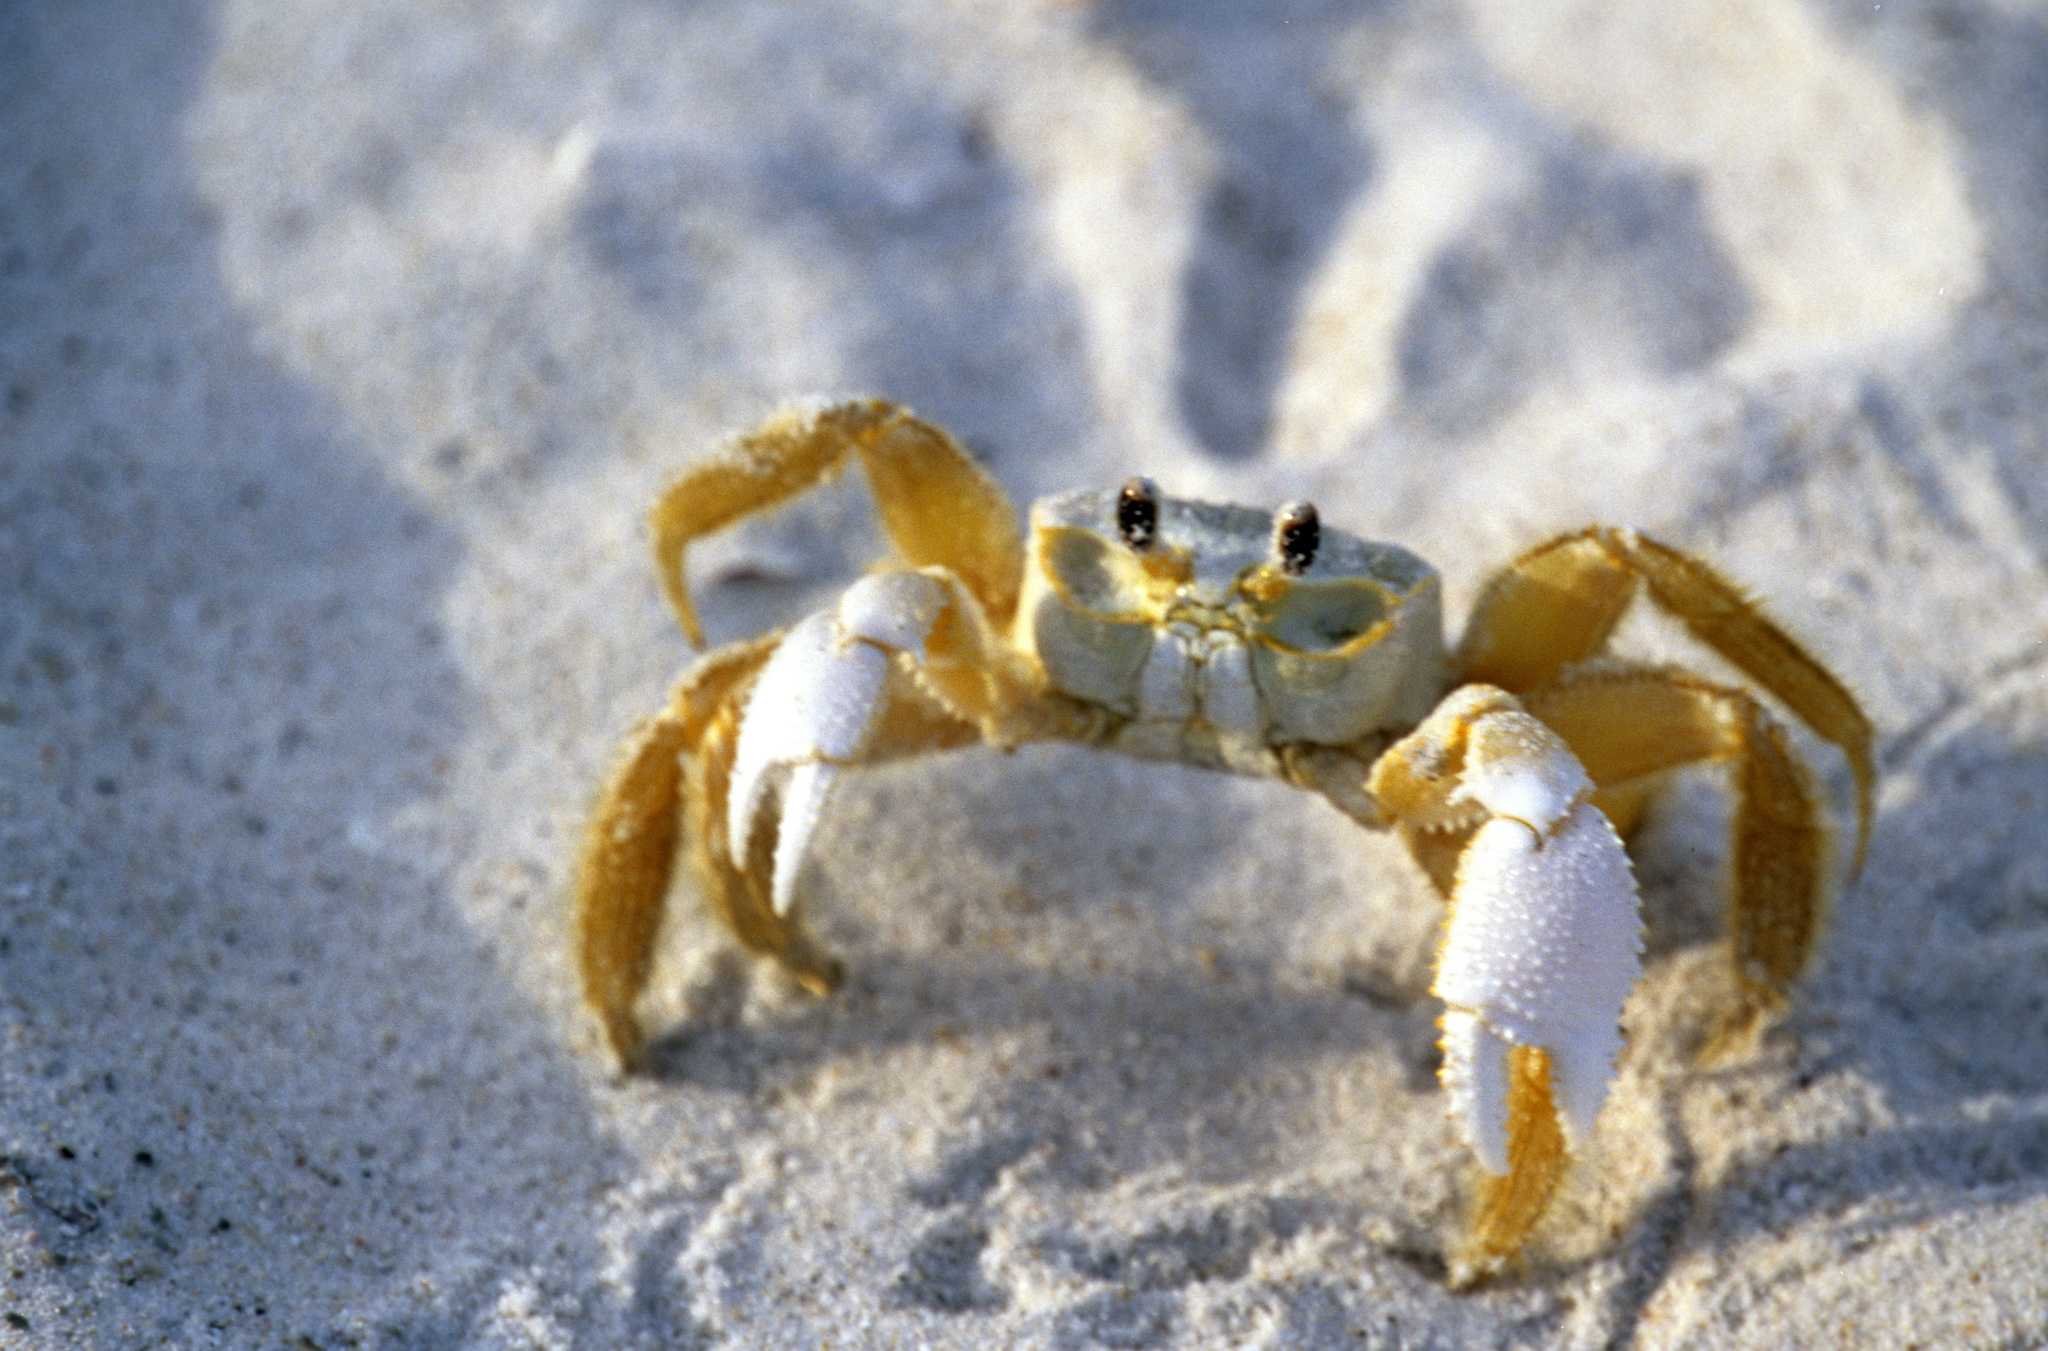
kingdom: Animalia
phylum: Arthropoda
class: Malacostraca
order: Decapoda
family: Ocypodidae
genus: Ocypode
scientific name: Ocypode quadrata
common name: Ghost crab
